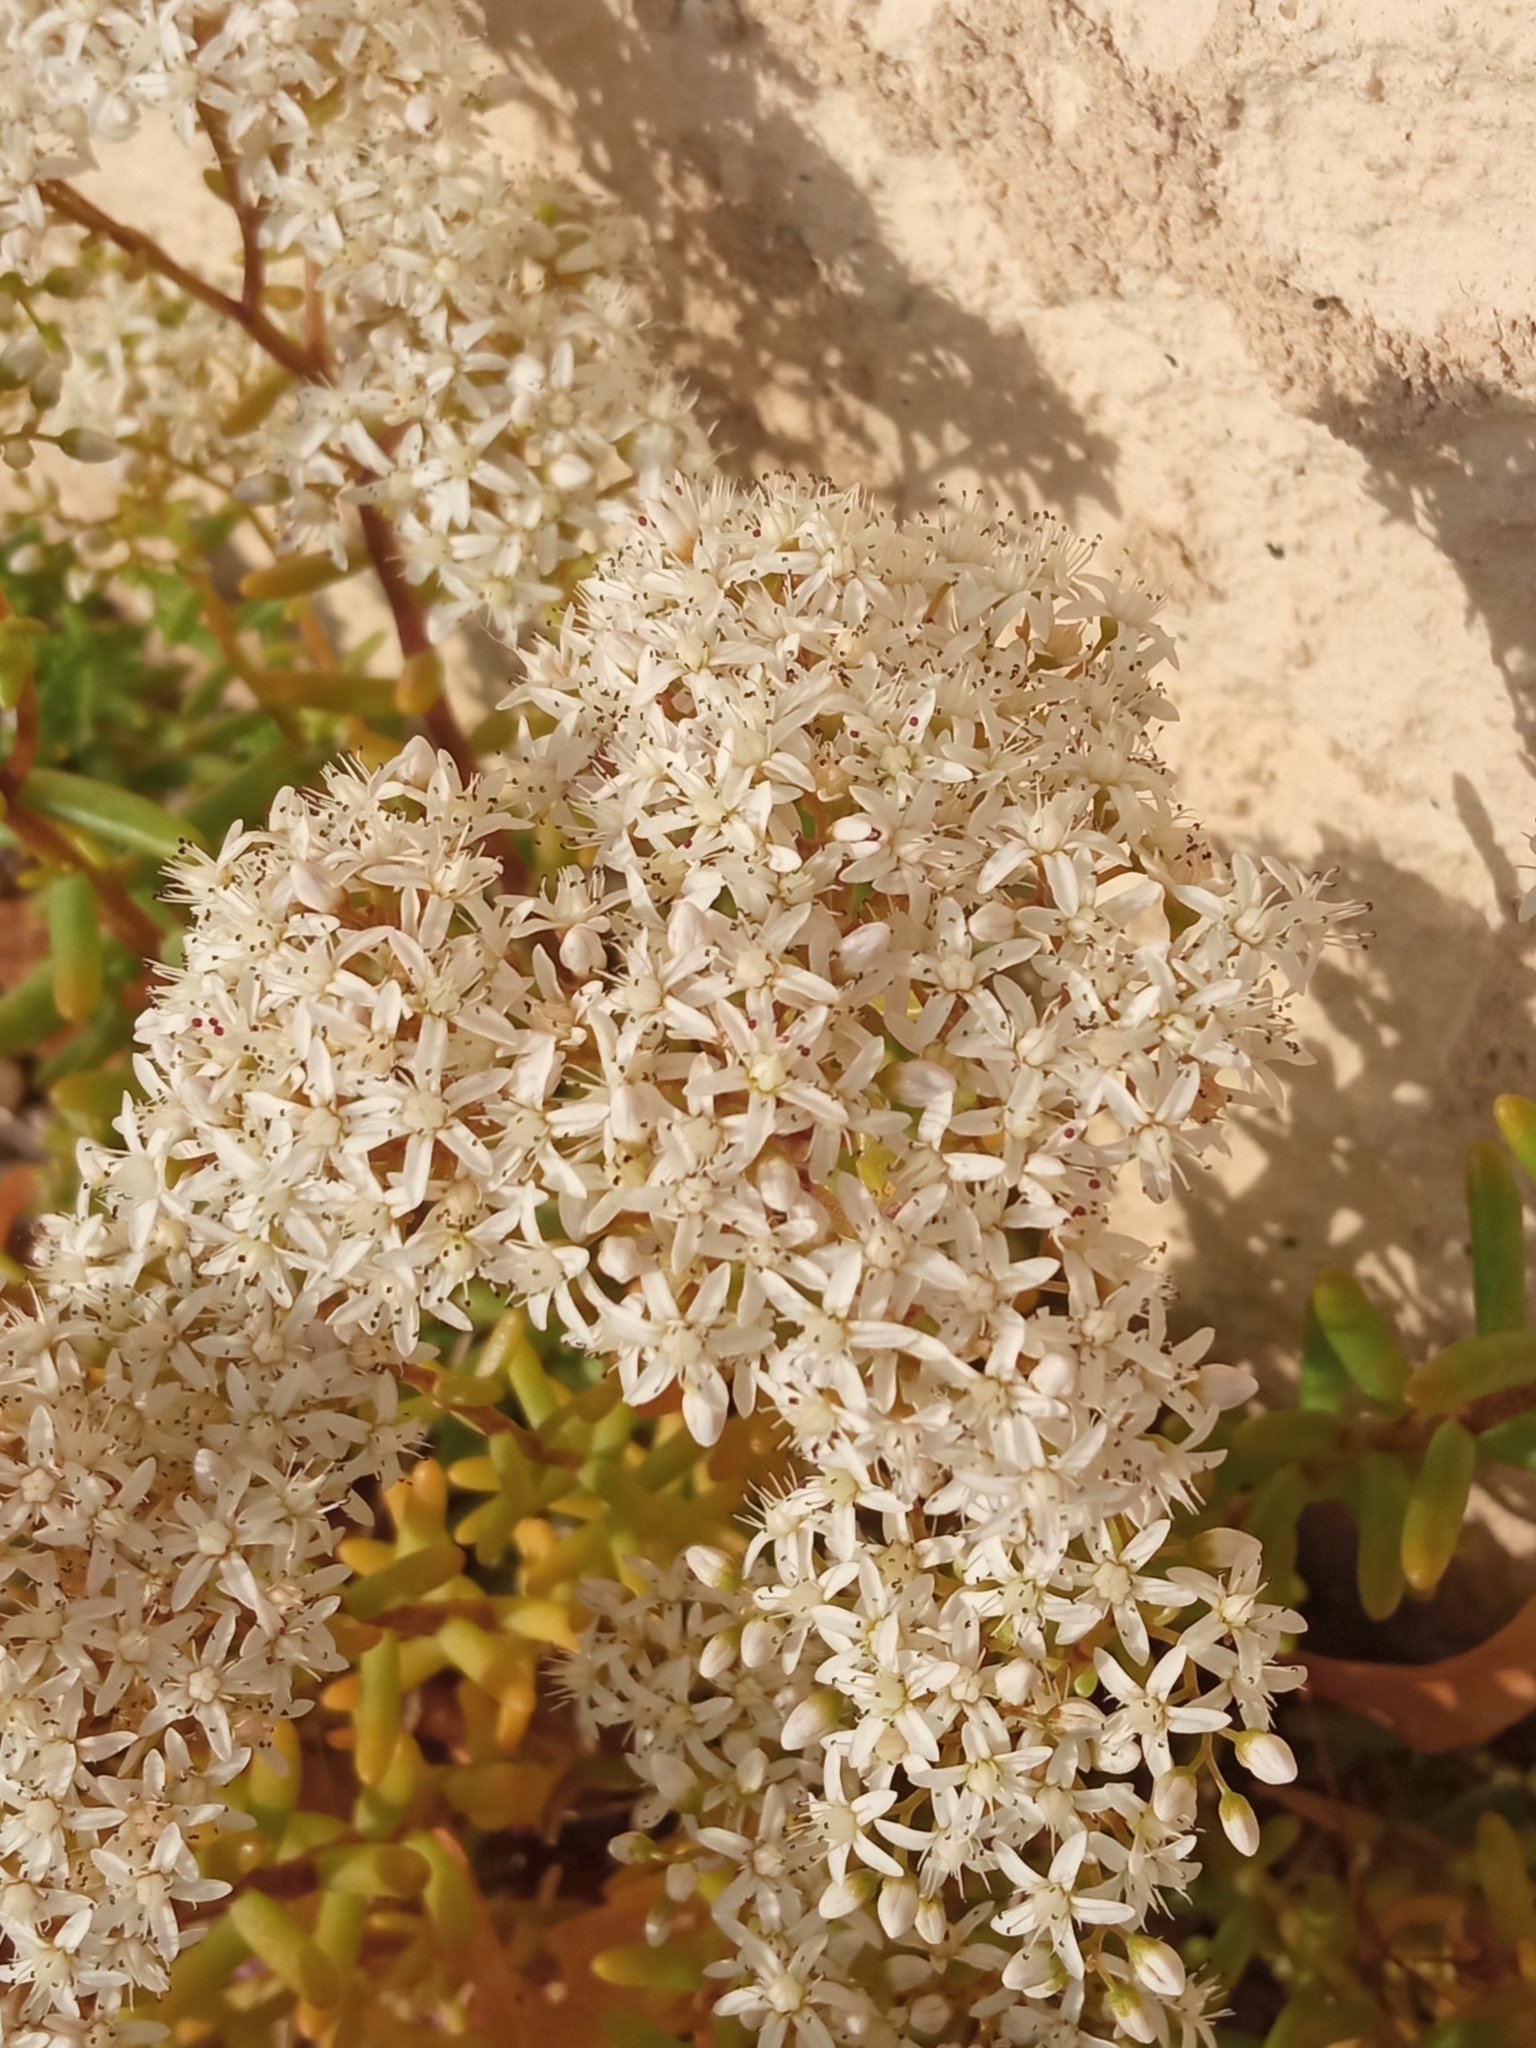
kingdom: Plantae
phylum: Tracheophyta
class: Magnoliopsida
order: Saxifragales
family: Crassulaceae
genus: Sedum
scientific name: Sedum album
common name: White stonecrop
